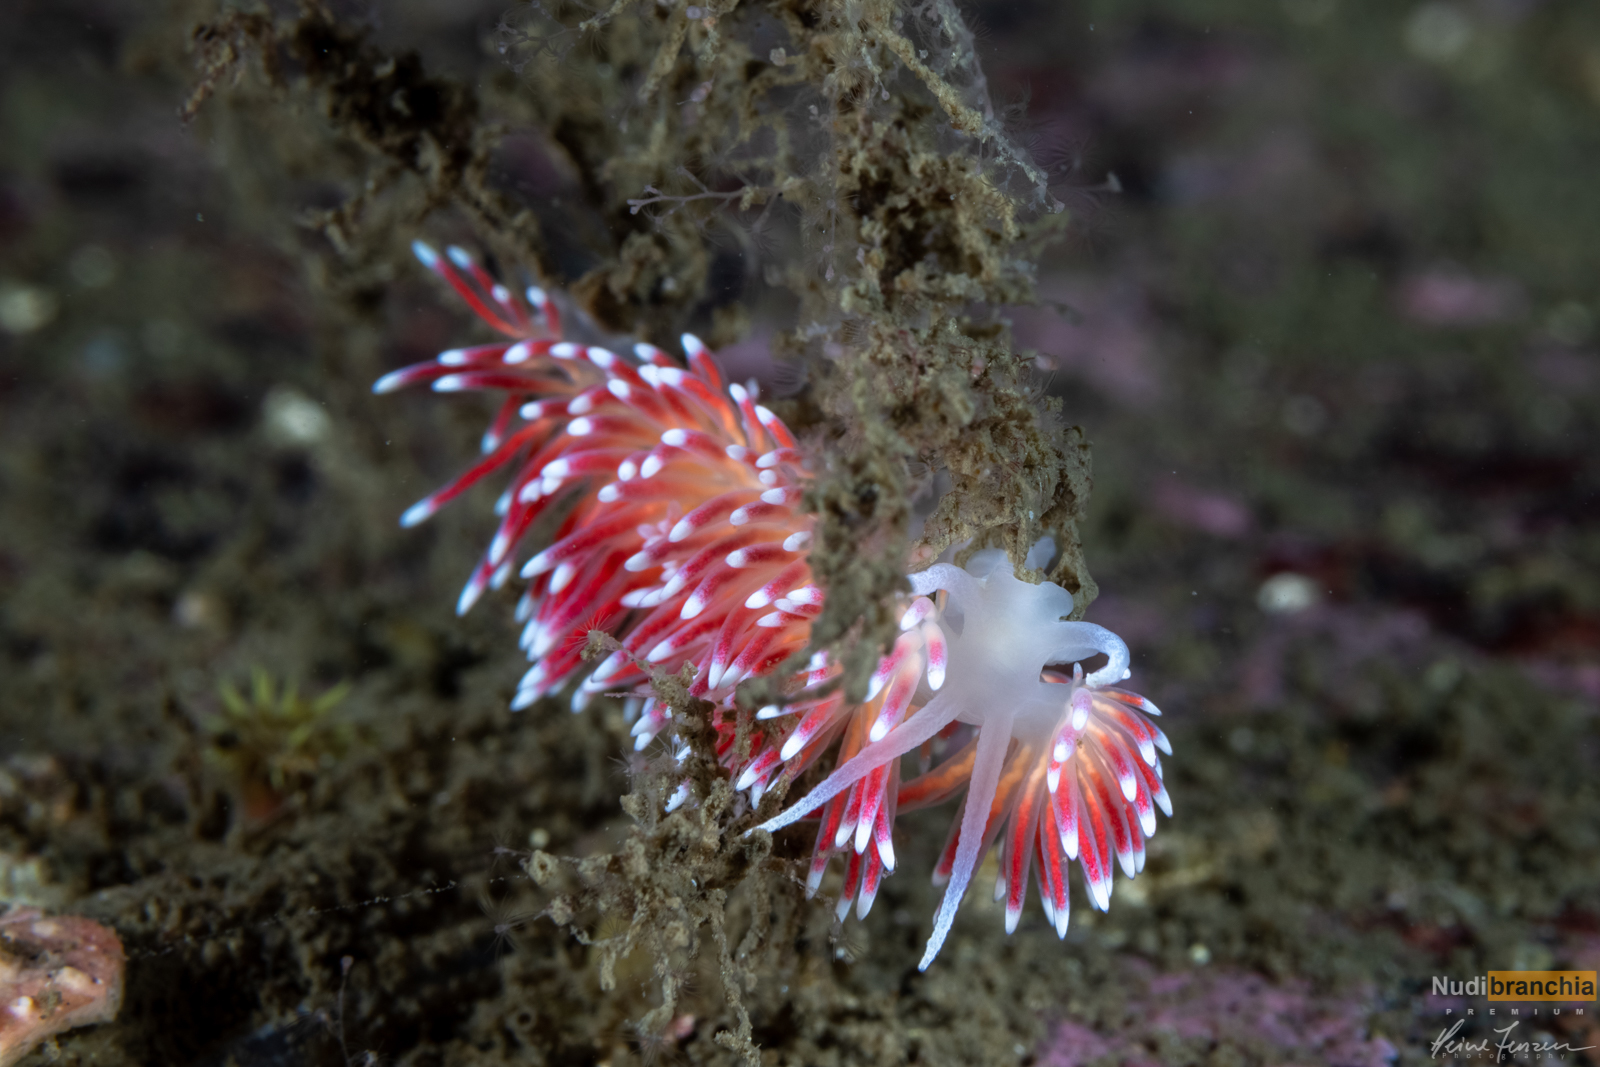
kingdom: Animalia
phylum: Mollusca
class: Gastropoda
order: Nudibranchia
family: Flabellinidae
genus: Carronella
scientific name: Carronella pellucida
